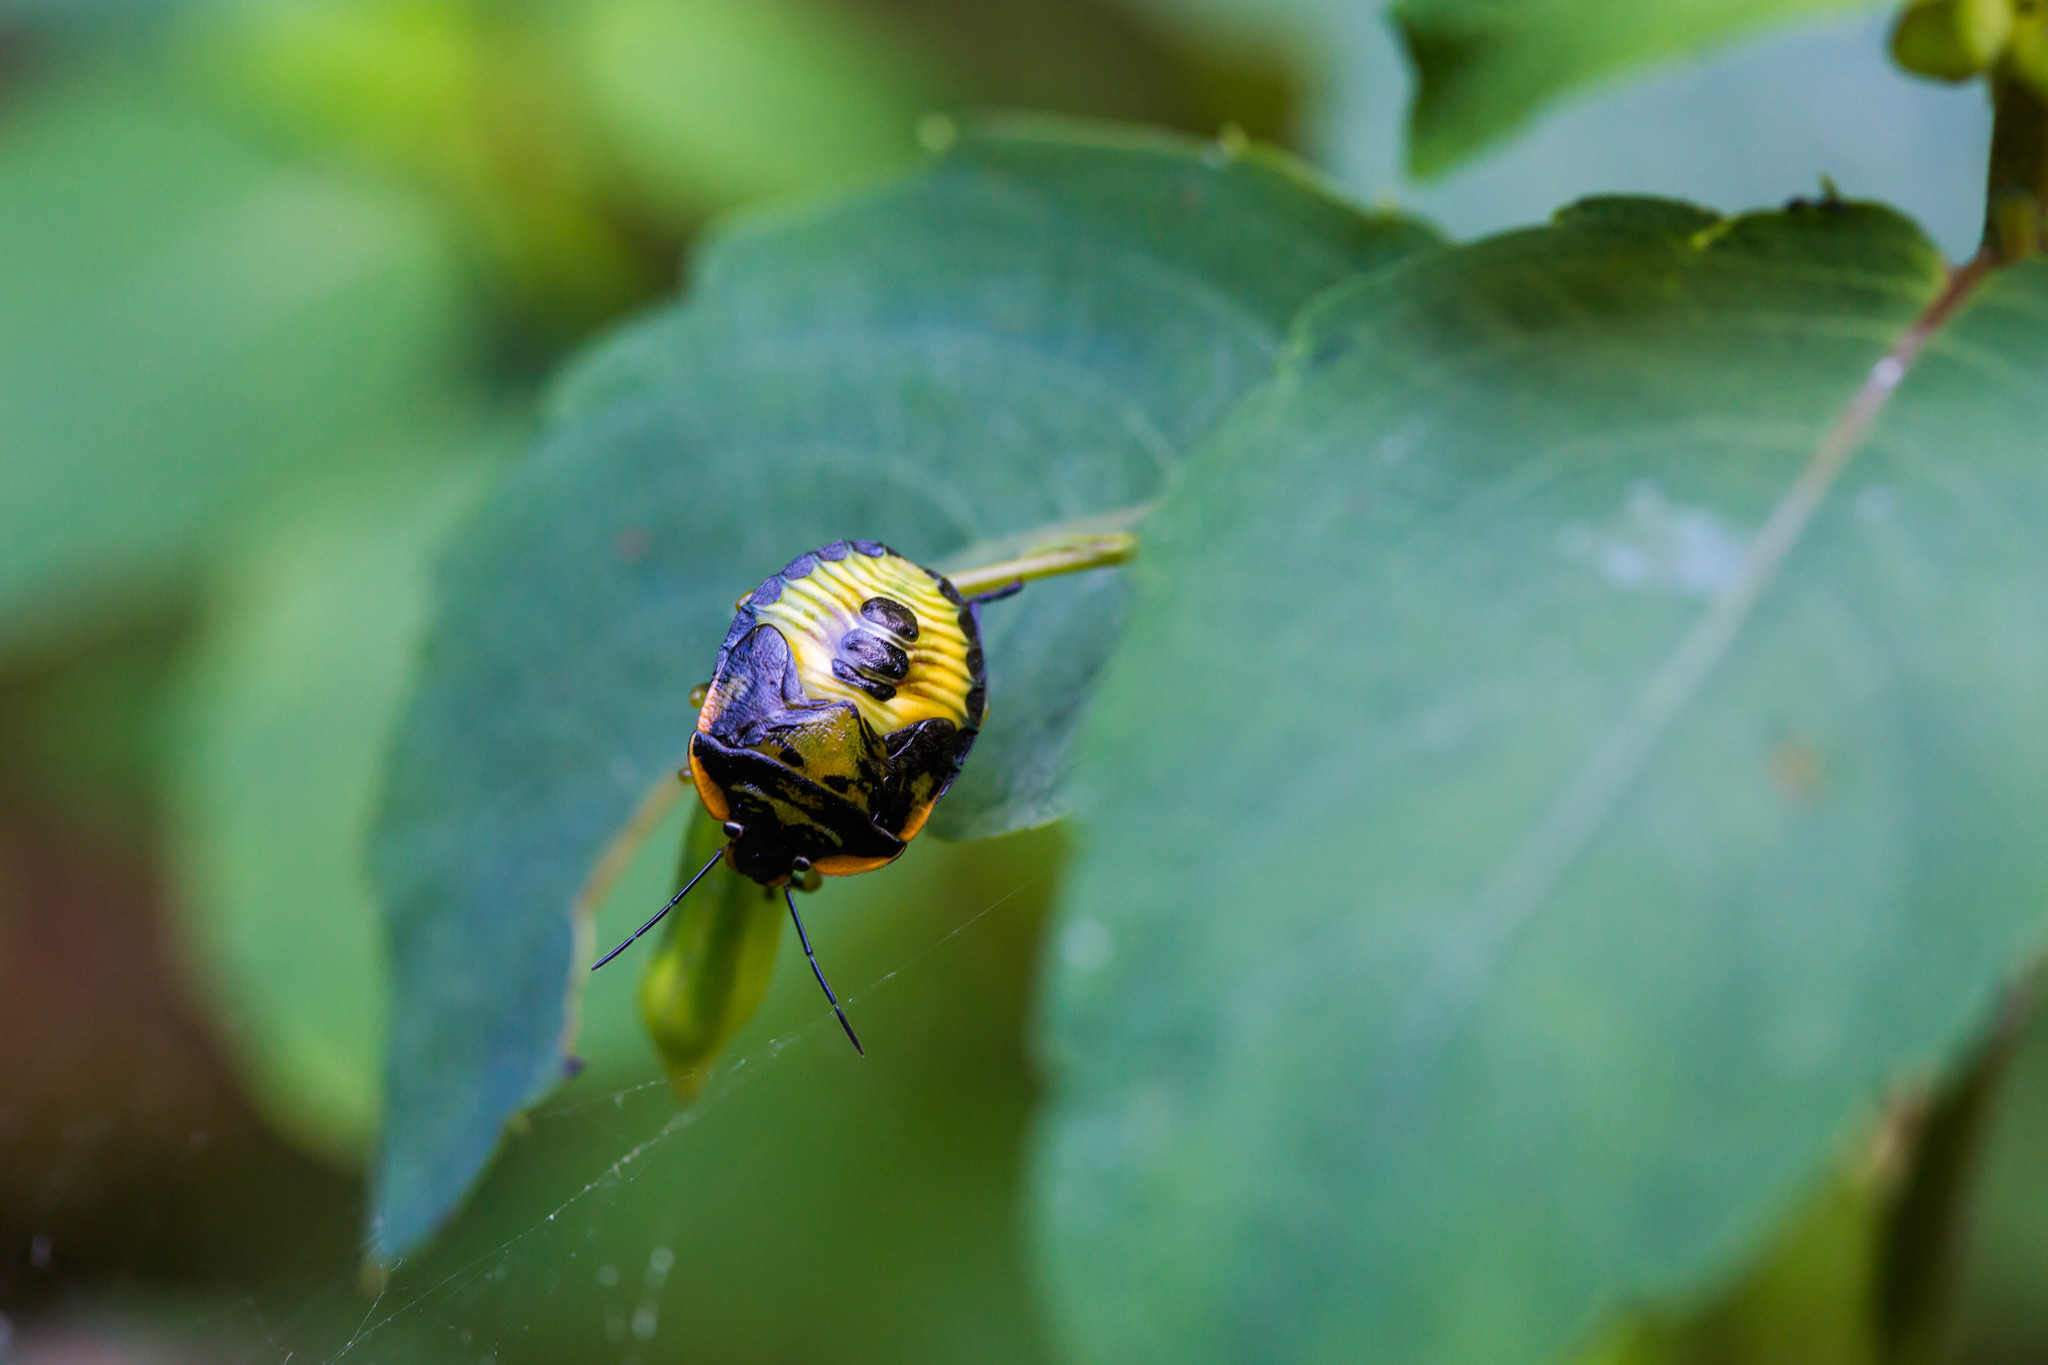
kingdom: Animalia
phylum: Arthropoda
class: Insecta
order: Hemiptera
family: Pentatomidae
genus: Chinavia
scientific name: Chinavia hilaris
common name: Green stink bug
